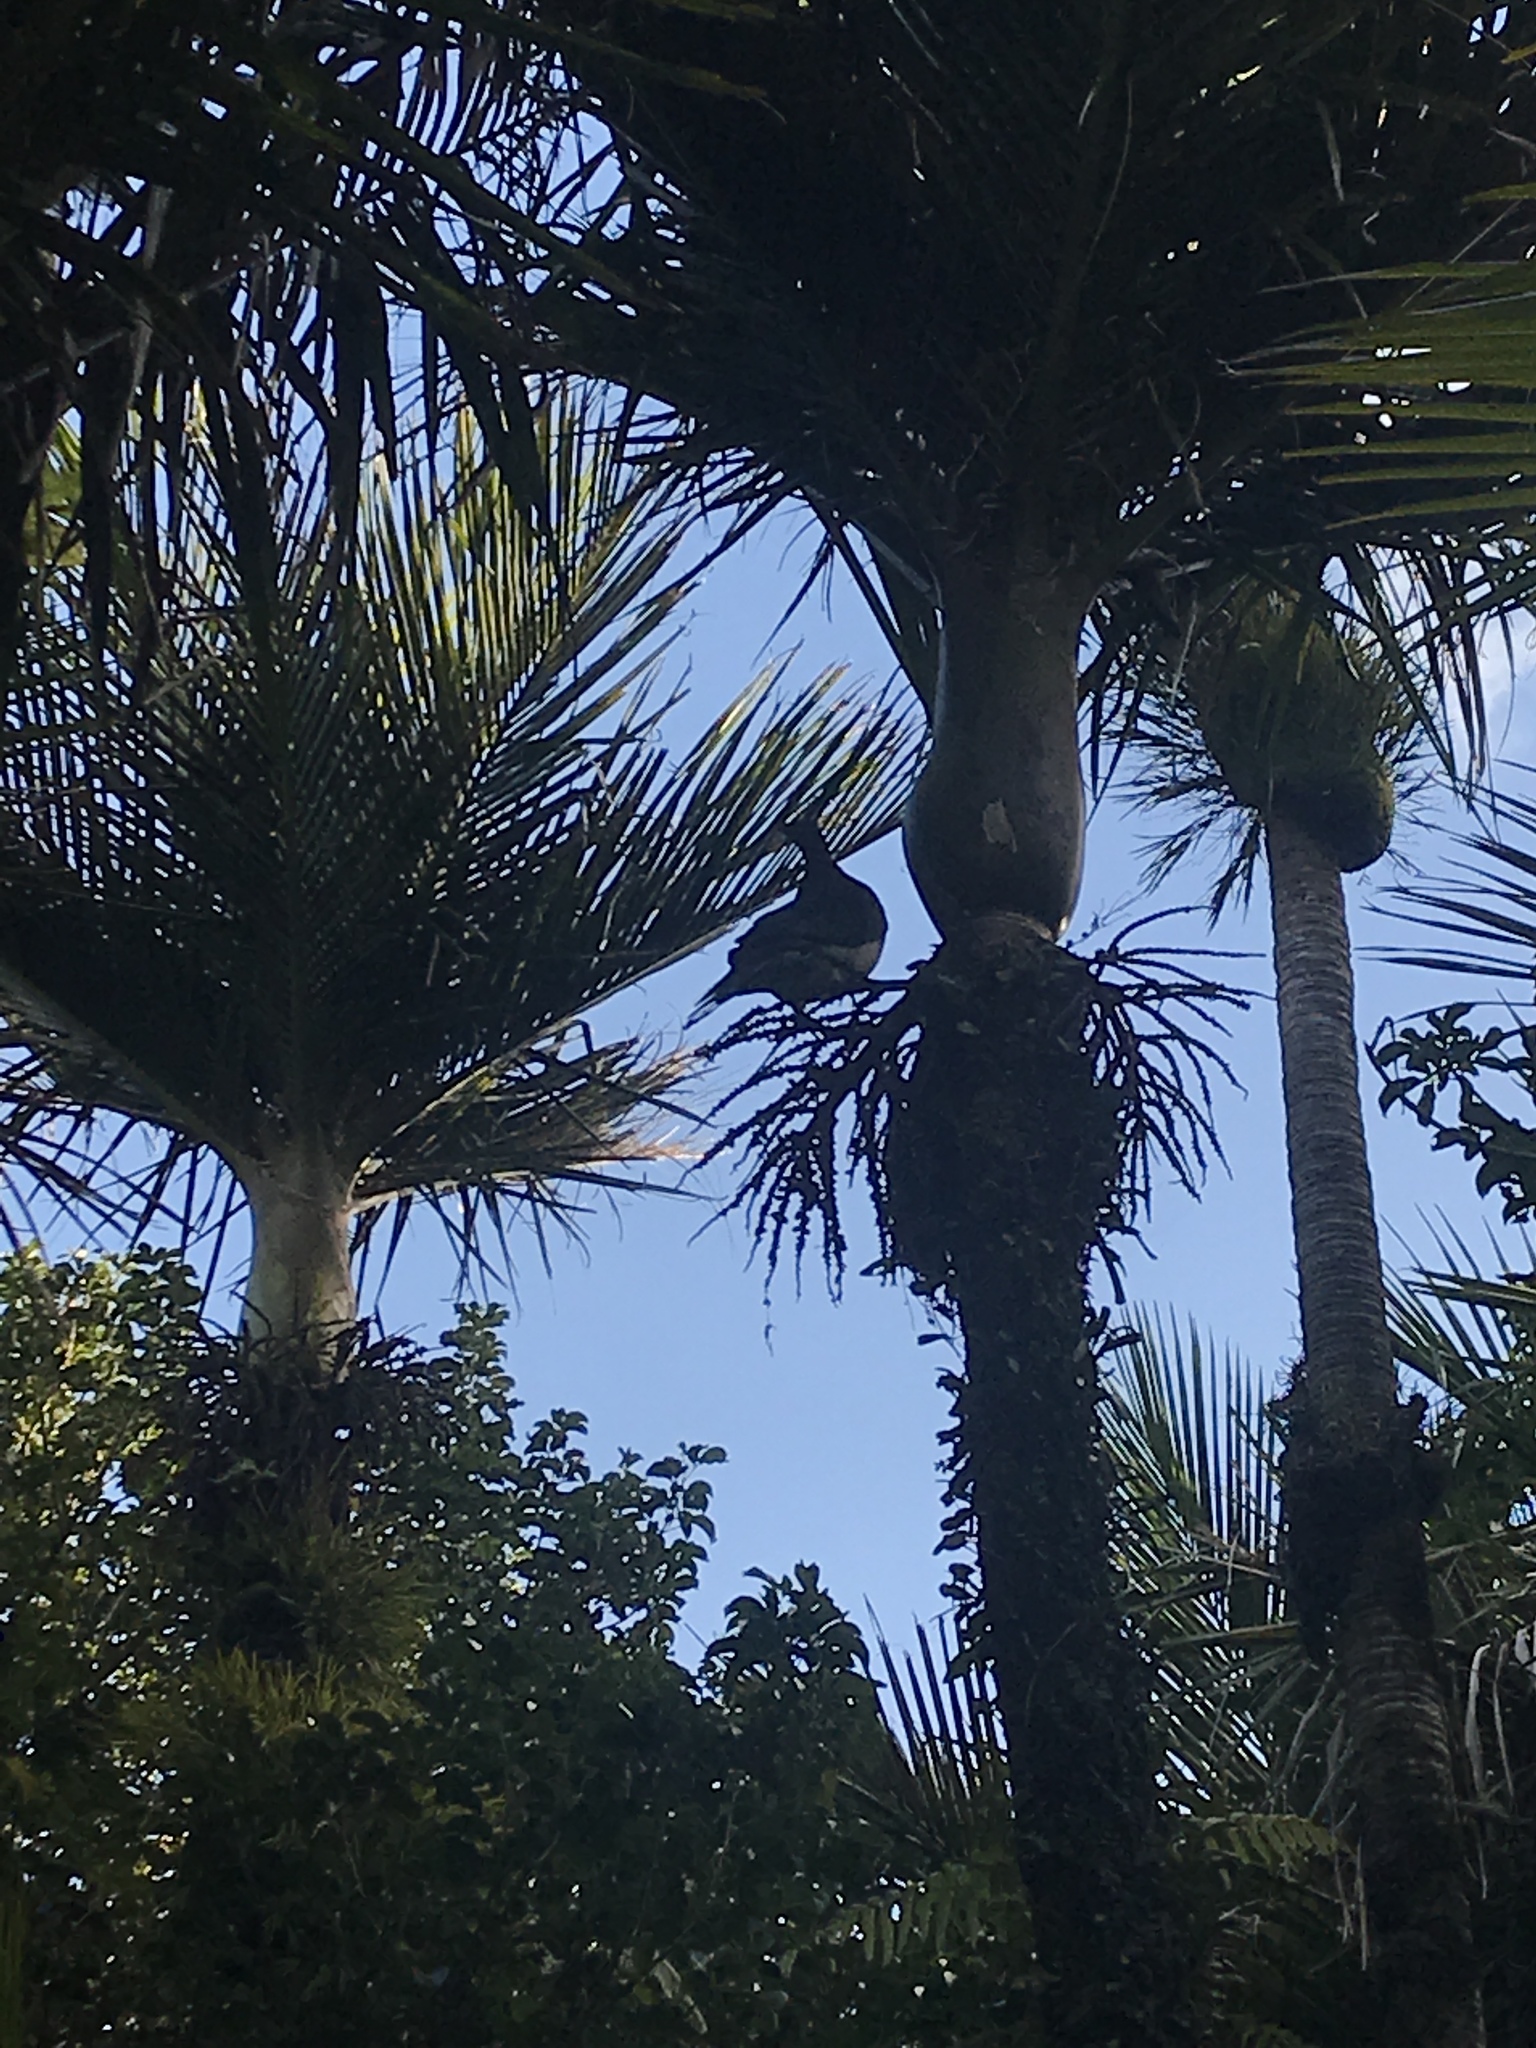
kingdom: Animalia
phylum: Chordata
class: Aves
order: Columbiformes
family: Columbidae
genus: Hemiphaga
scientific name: Hemiphaga novaeseelandiae
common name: New zealand pigeon
